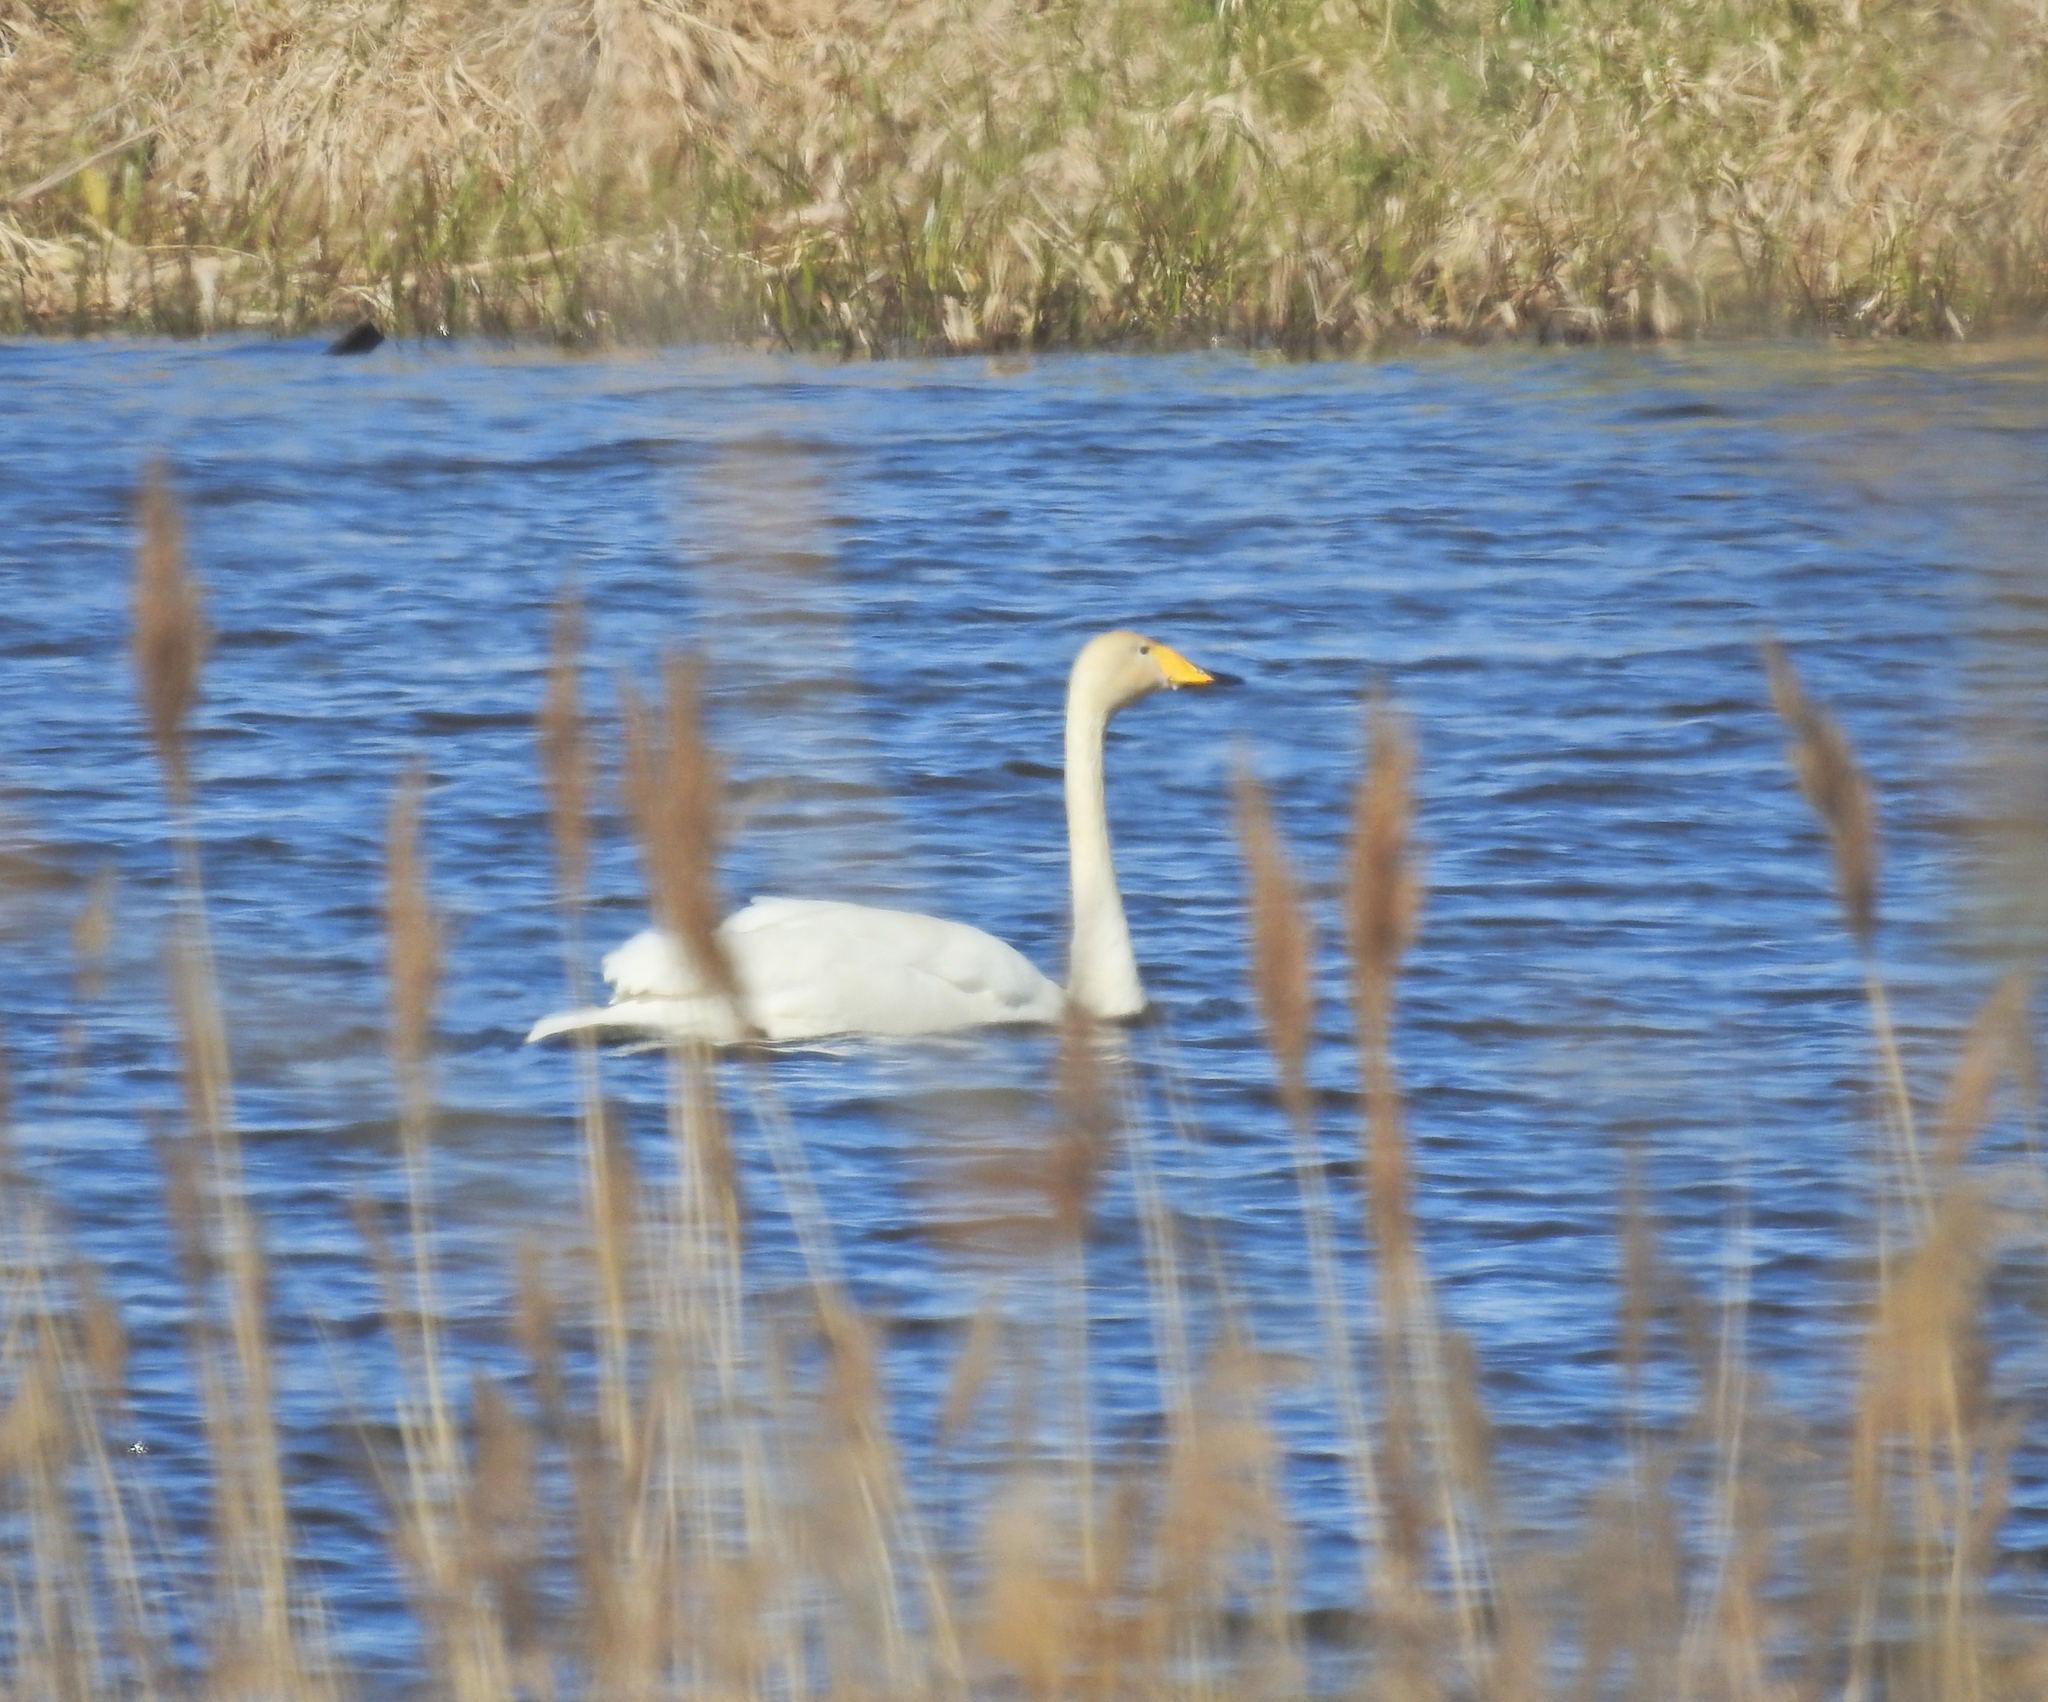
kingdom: Animalia
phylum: Chordata
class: Aves
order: Anseriformes
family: Anatidae
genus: Cygnus
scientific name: Cygnus cygnus
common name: Whooper swan
